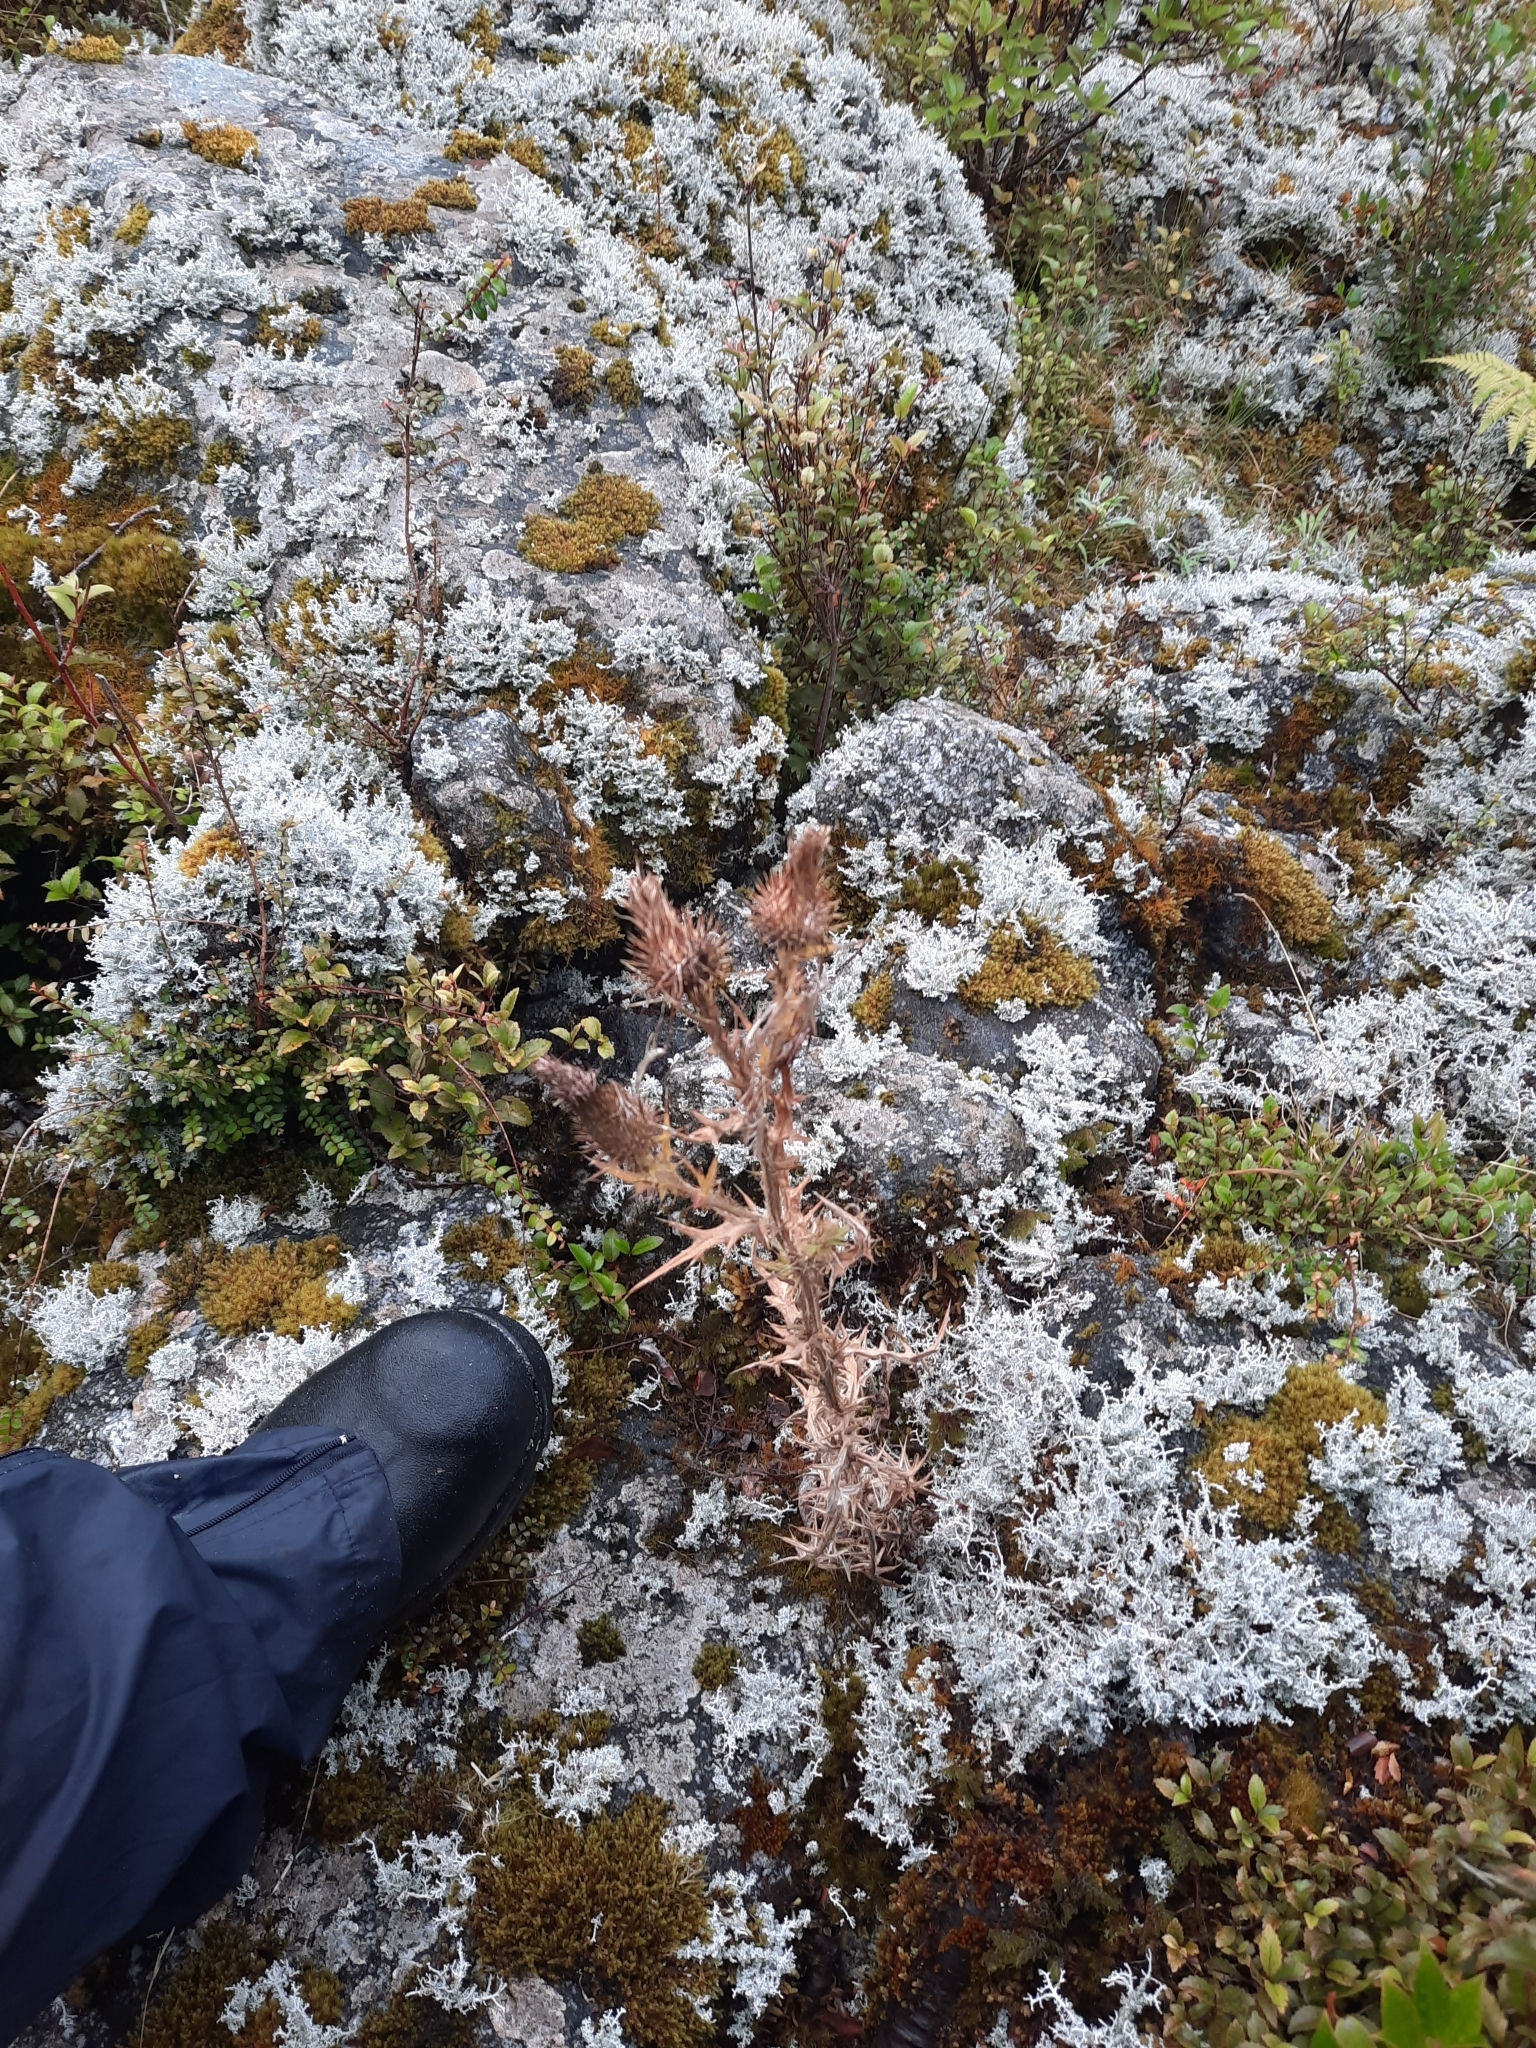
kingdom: Plantae
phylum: Tracheophyta
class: Magnoliopsida
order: Asterales
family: Asteraceae
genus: Cirsium
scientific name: Cirsium vulgare
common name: Bull thistle
